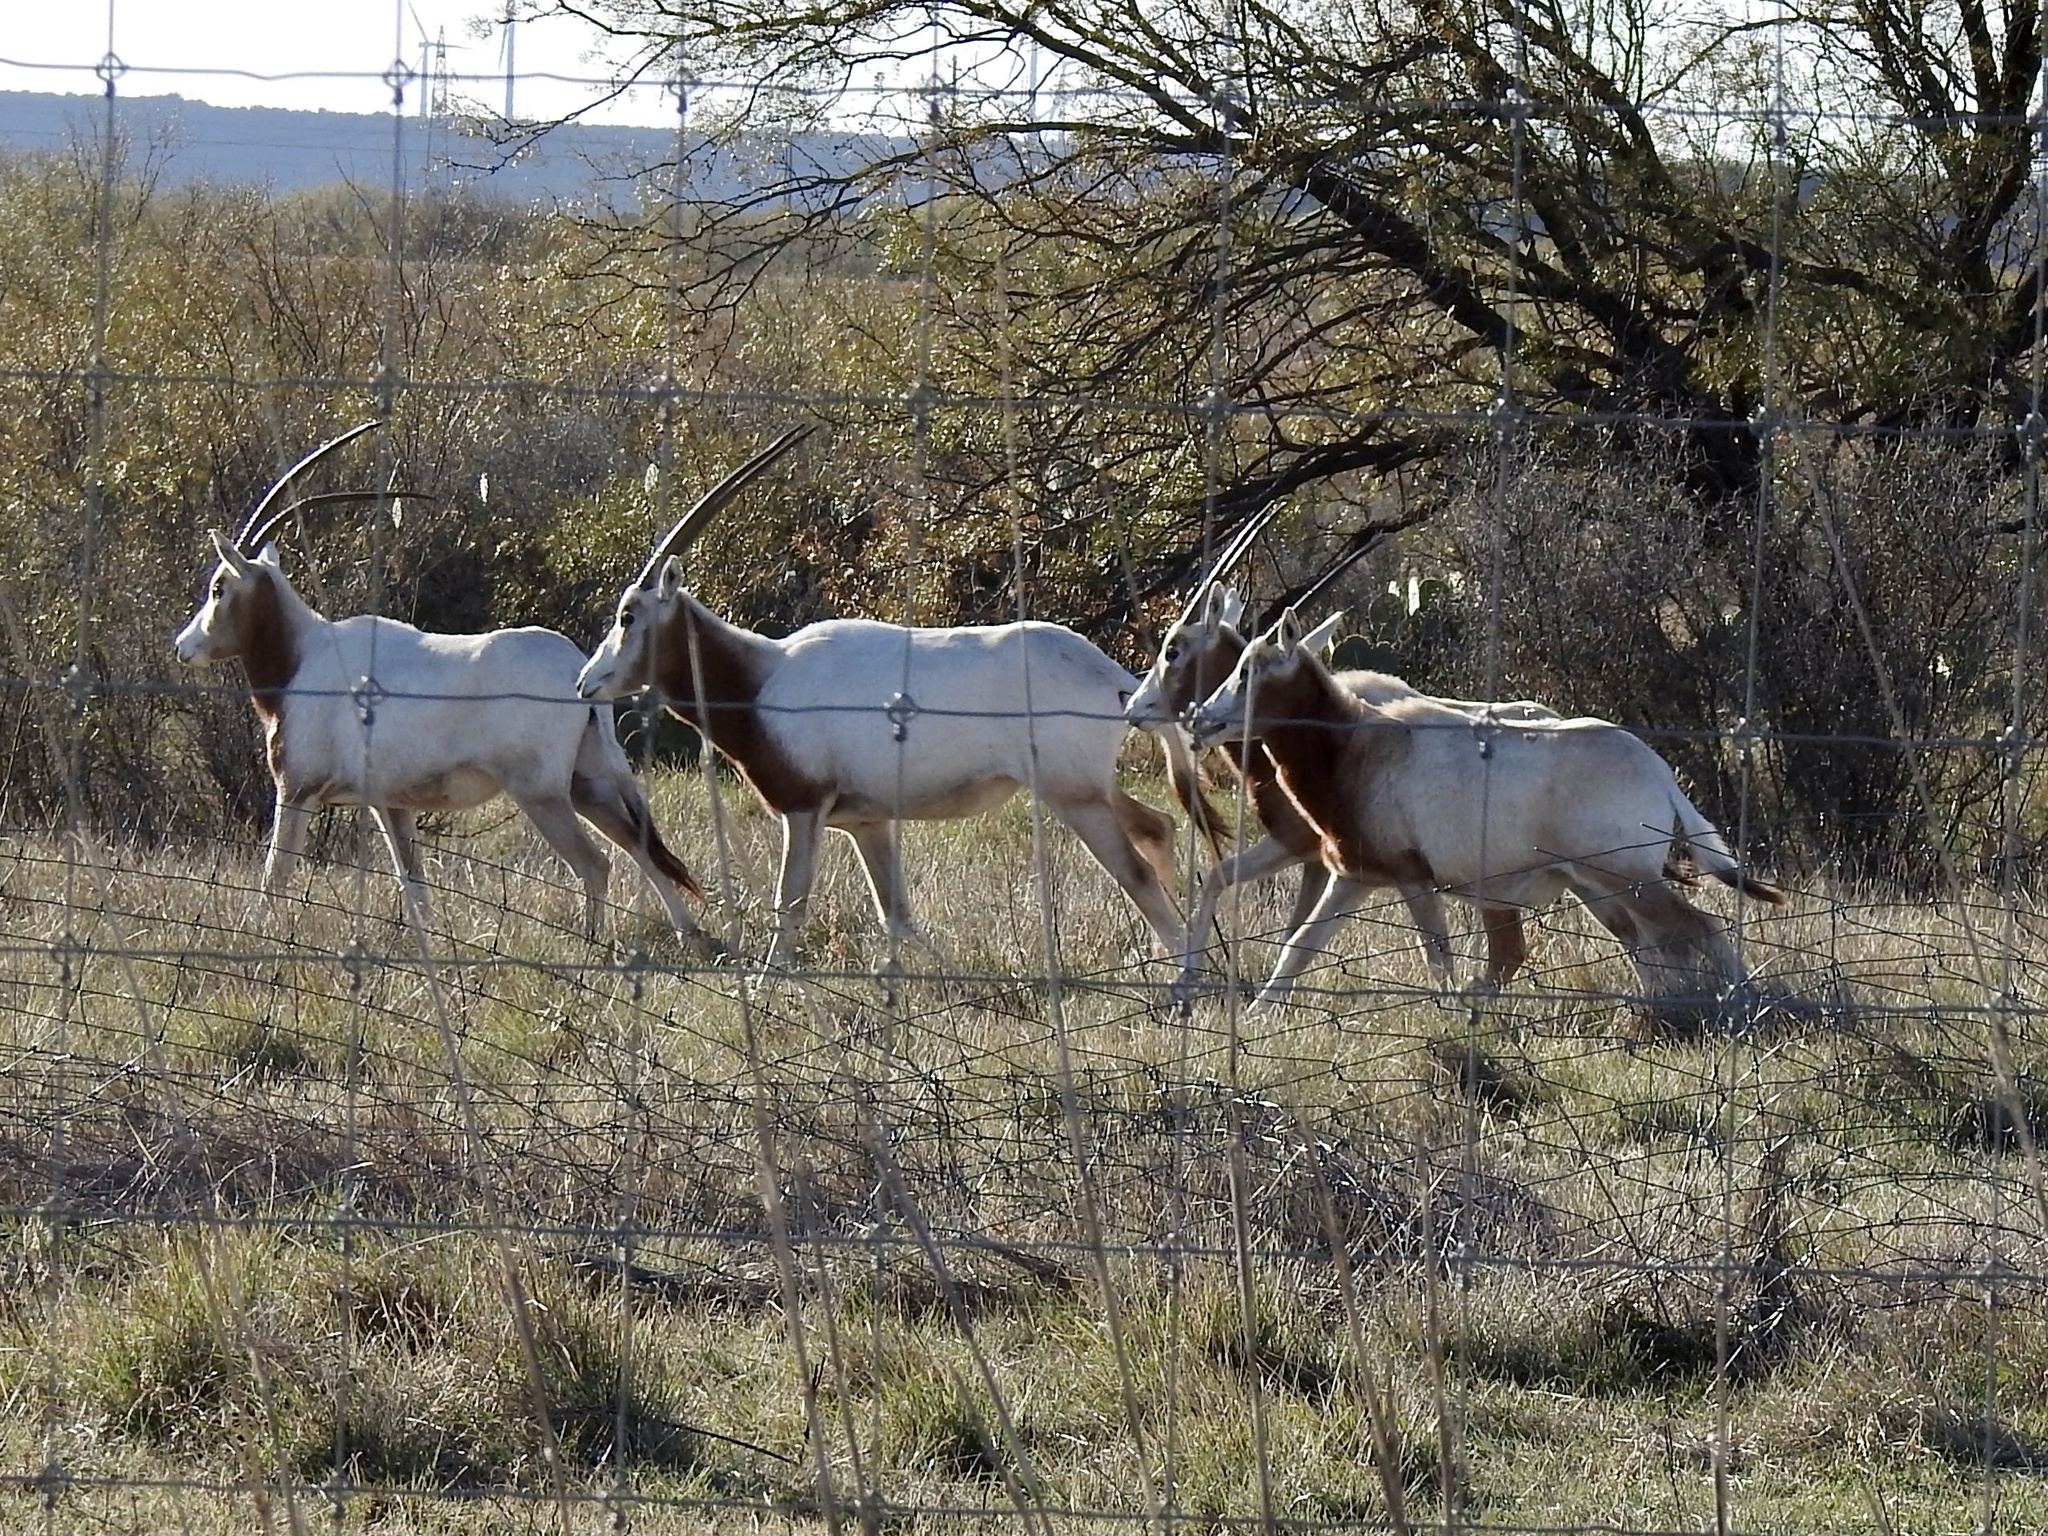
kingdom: Animalia
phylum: Chordata
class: Mammalia
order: Artiodactyla
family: Bovidae
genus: Oryx
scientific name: Oryx dammah
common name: Scimitar-horned oryx
